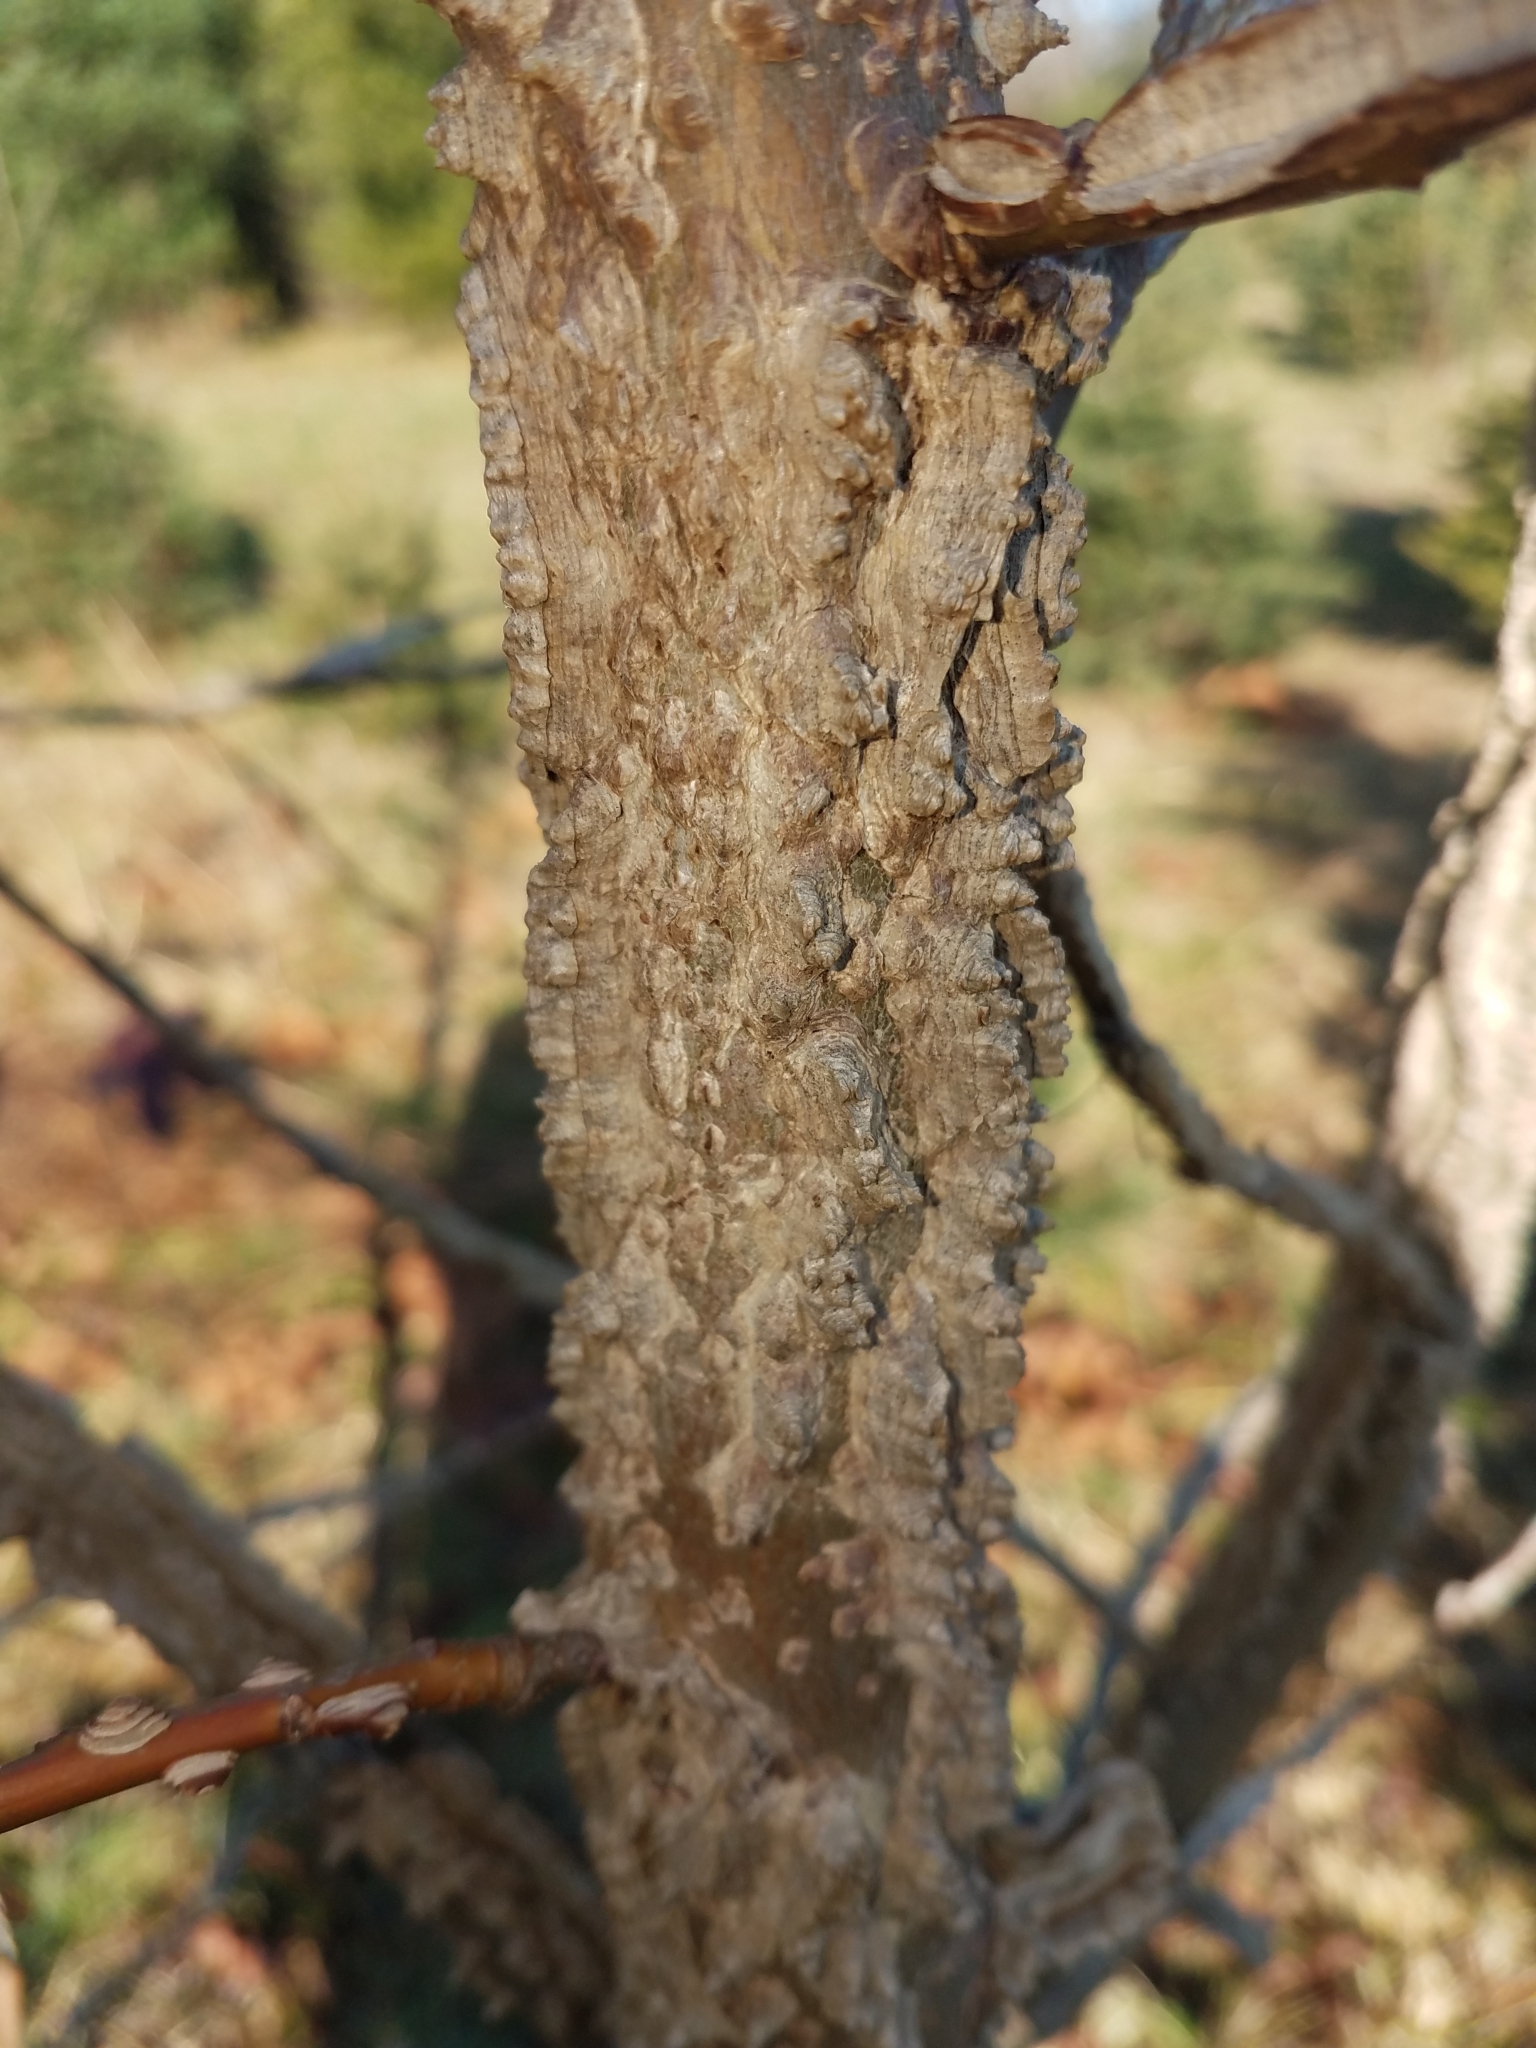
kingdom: Plantae
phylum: Tracheophyta
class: Magnoliopsida
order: Saxifragales
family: Altingiaceae
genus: Liquidambar
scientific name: Liquidambar styraciflua
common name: Sweet gum
